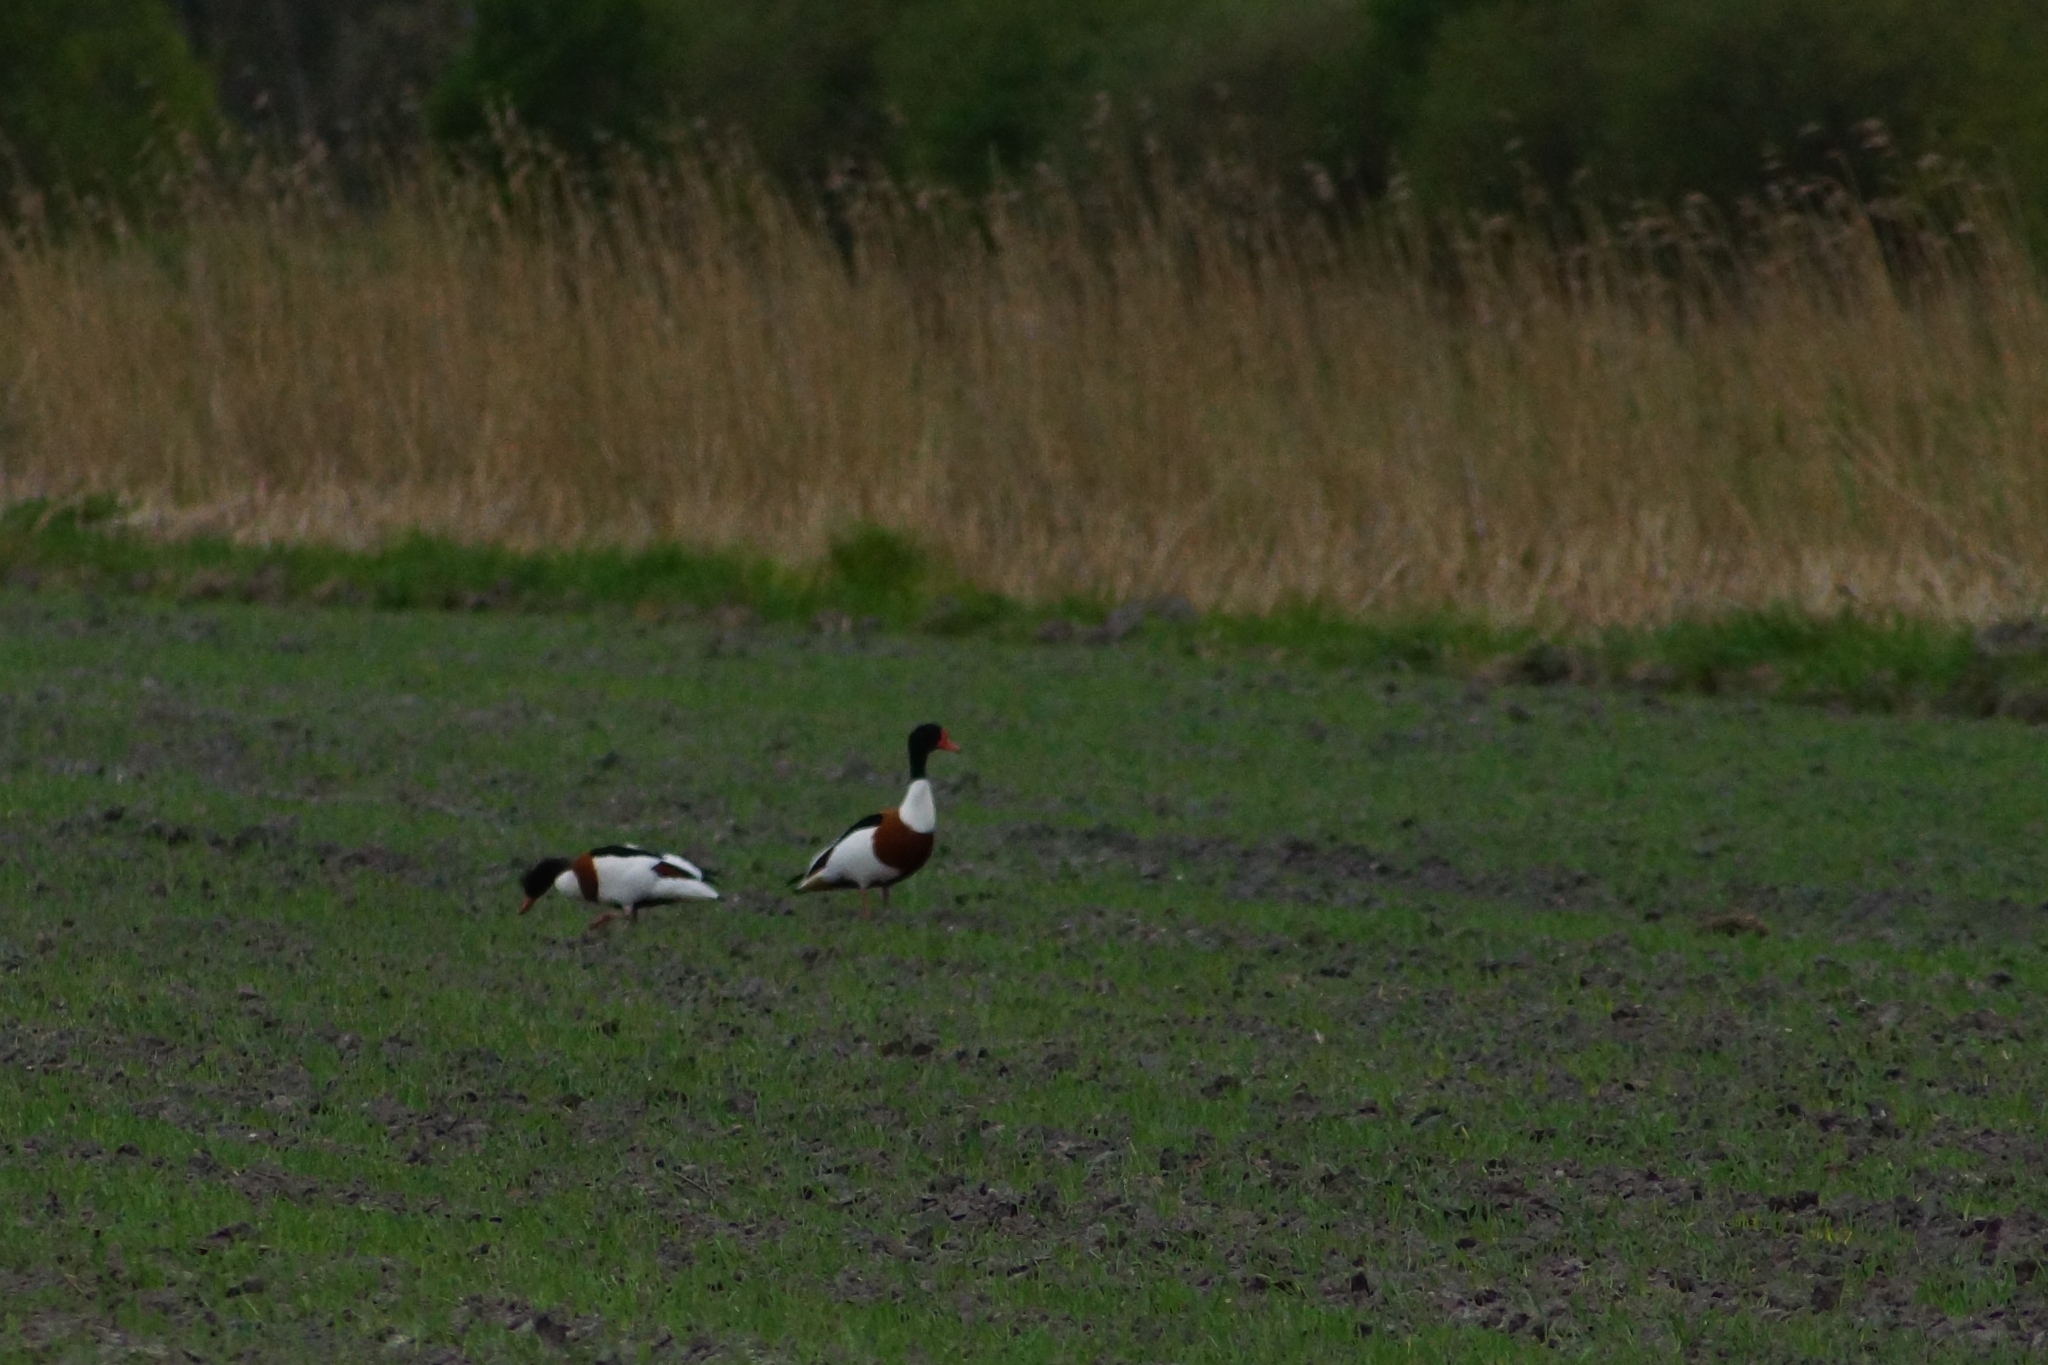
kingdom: Animalia
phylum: Chordata
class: Aves
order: Anseriformes
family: Anatidae
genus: Tadorna
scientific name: Tadorna tadorna
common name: Common shelduck
